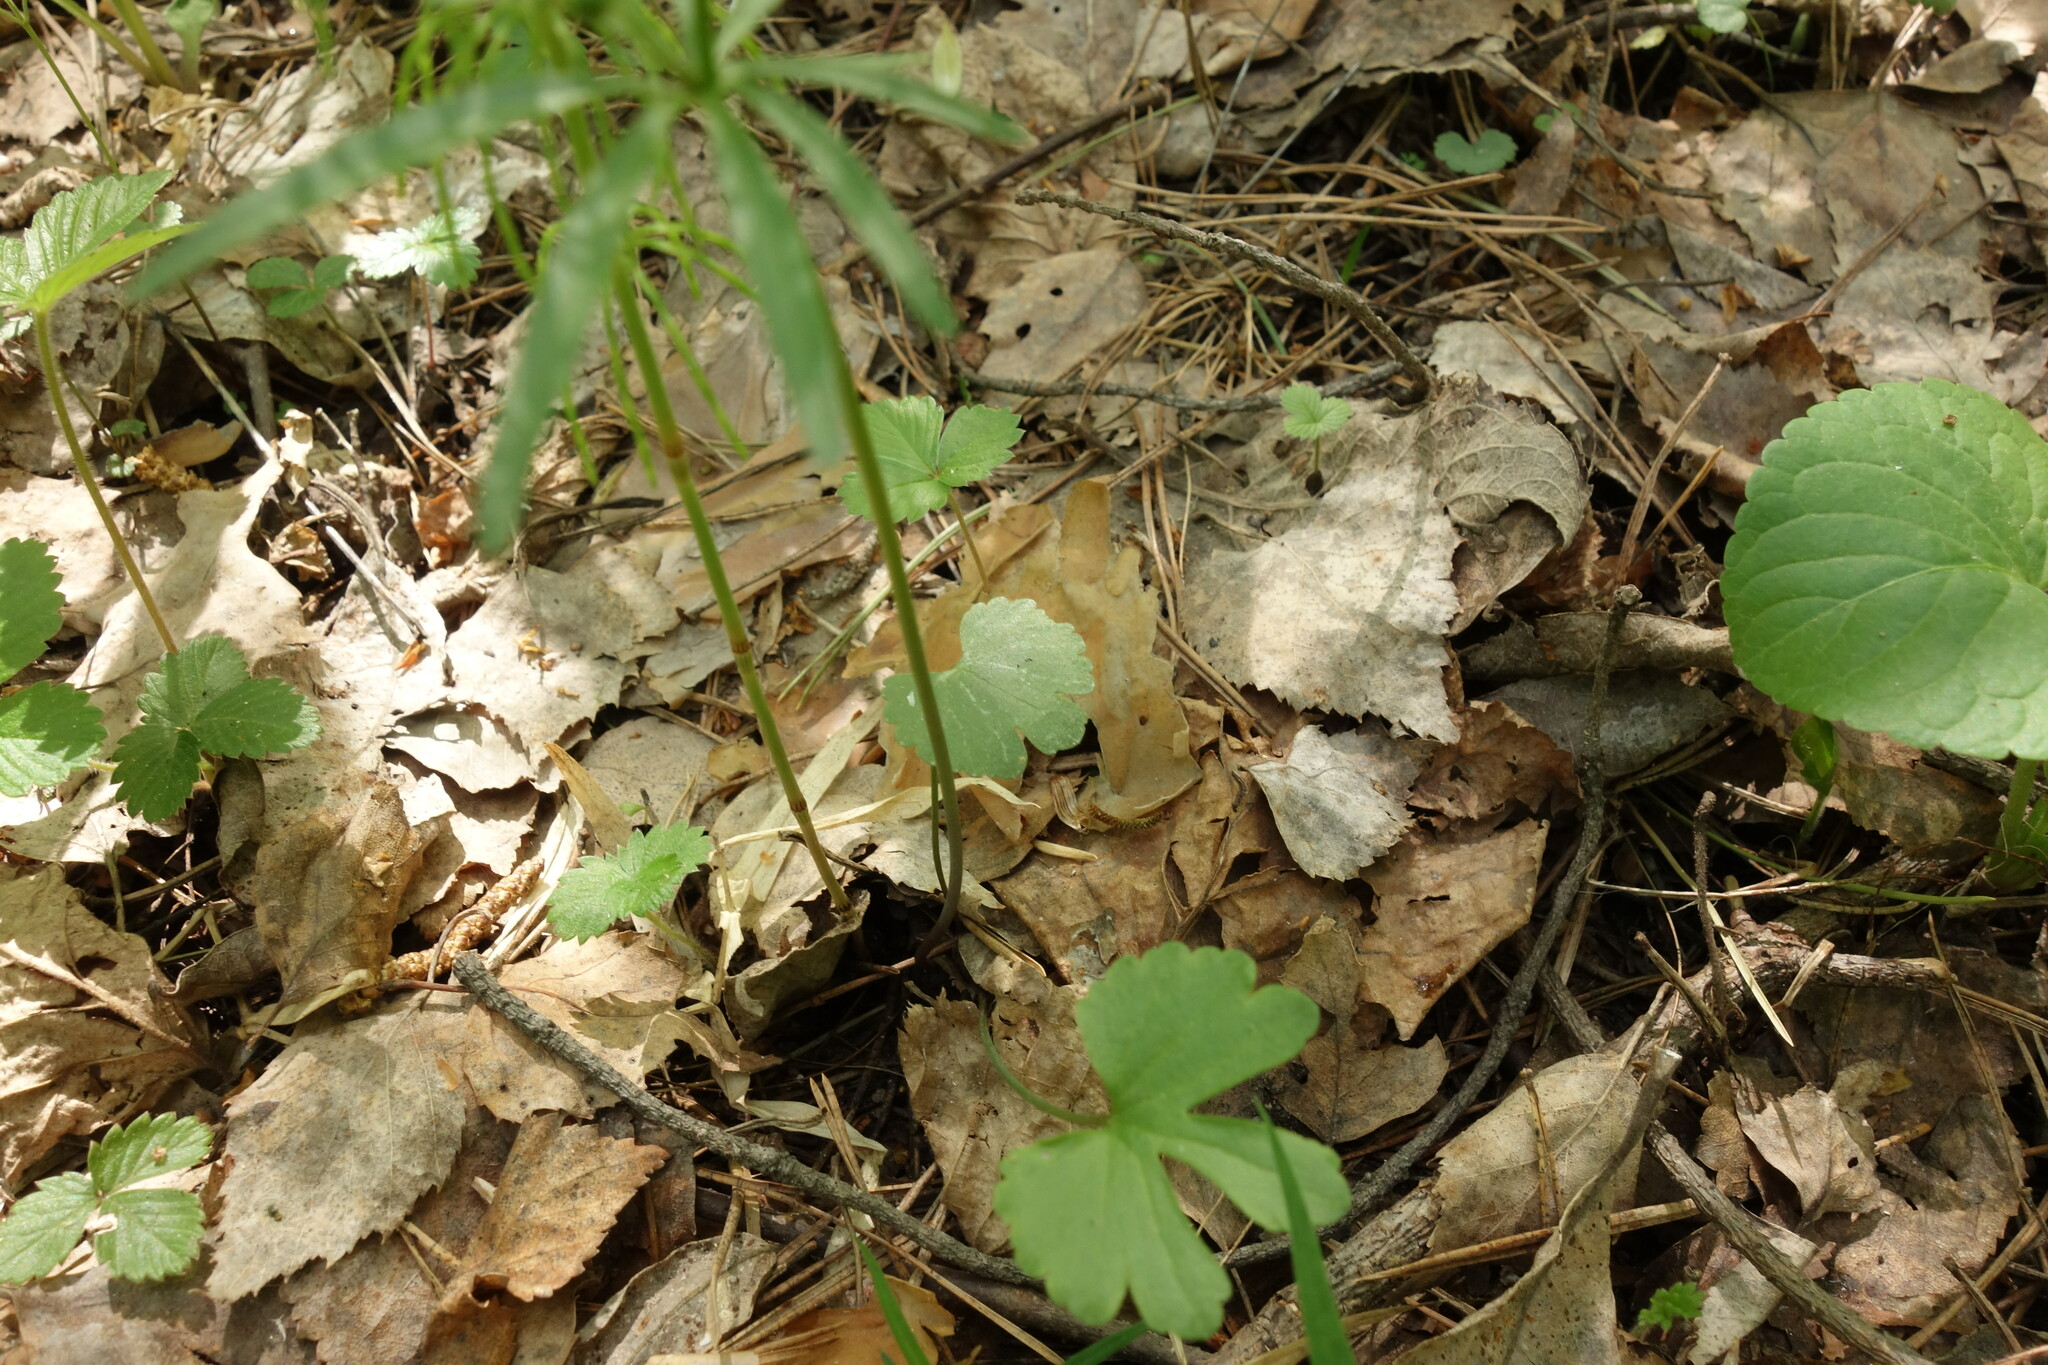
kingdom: Plantae
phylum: Tracheophyta
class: Magnoliopsida
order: Ranunculales
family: Ranunculaceae
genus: Ranunculus
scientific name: Ranunculus auricomus
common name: Goldilocks buttercup
